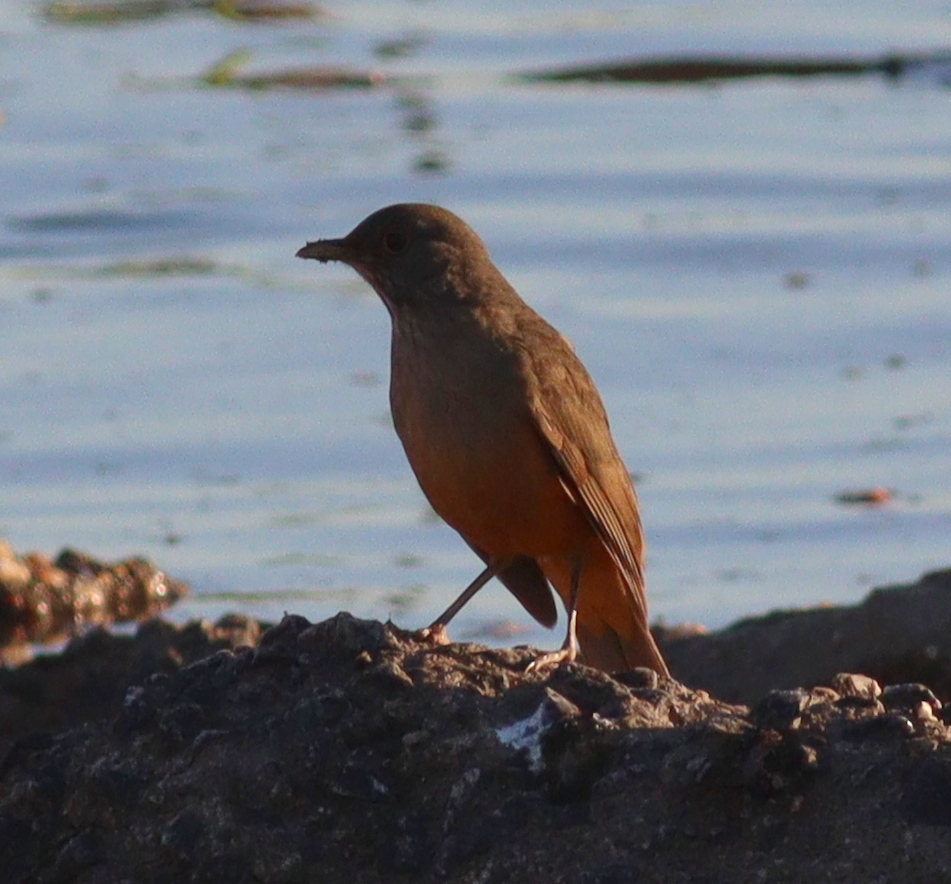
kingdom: Animalia
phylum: Chordata
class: Aves
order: Passeriformes
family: Turdidae
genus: Turdus
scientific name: Turdus rufiventris
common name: Rufous-bellied thrush
